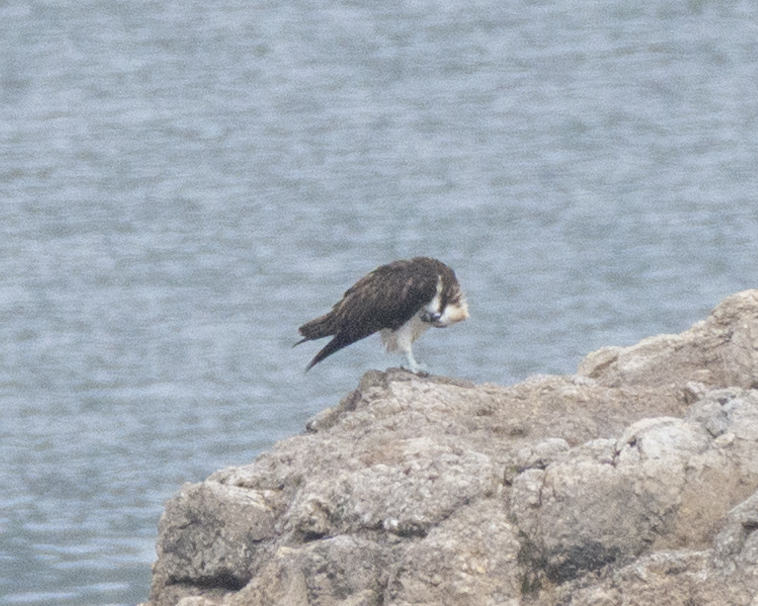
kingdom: Animalia
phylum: Chordata
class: Aves
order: Accipitriformes
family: Pandionidae
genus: Pandion
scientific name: Pandion haliaetus
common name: Osprey
